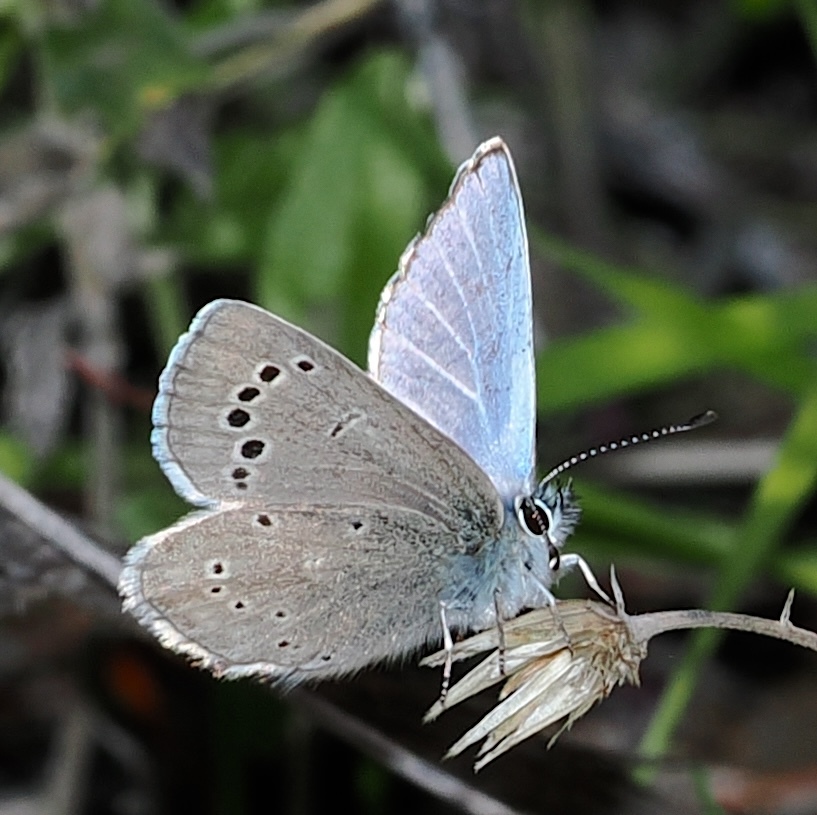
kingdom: Animalia
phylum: Arthropoda
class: Insecta
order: Lepidoptera
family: Lycaenidae
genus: Glaucopsyche
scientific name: Glaucopsyche lygdamus
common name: Silvery blue
